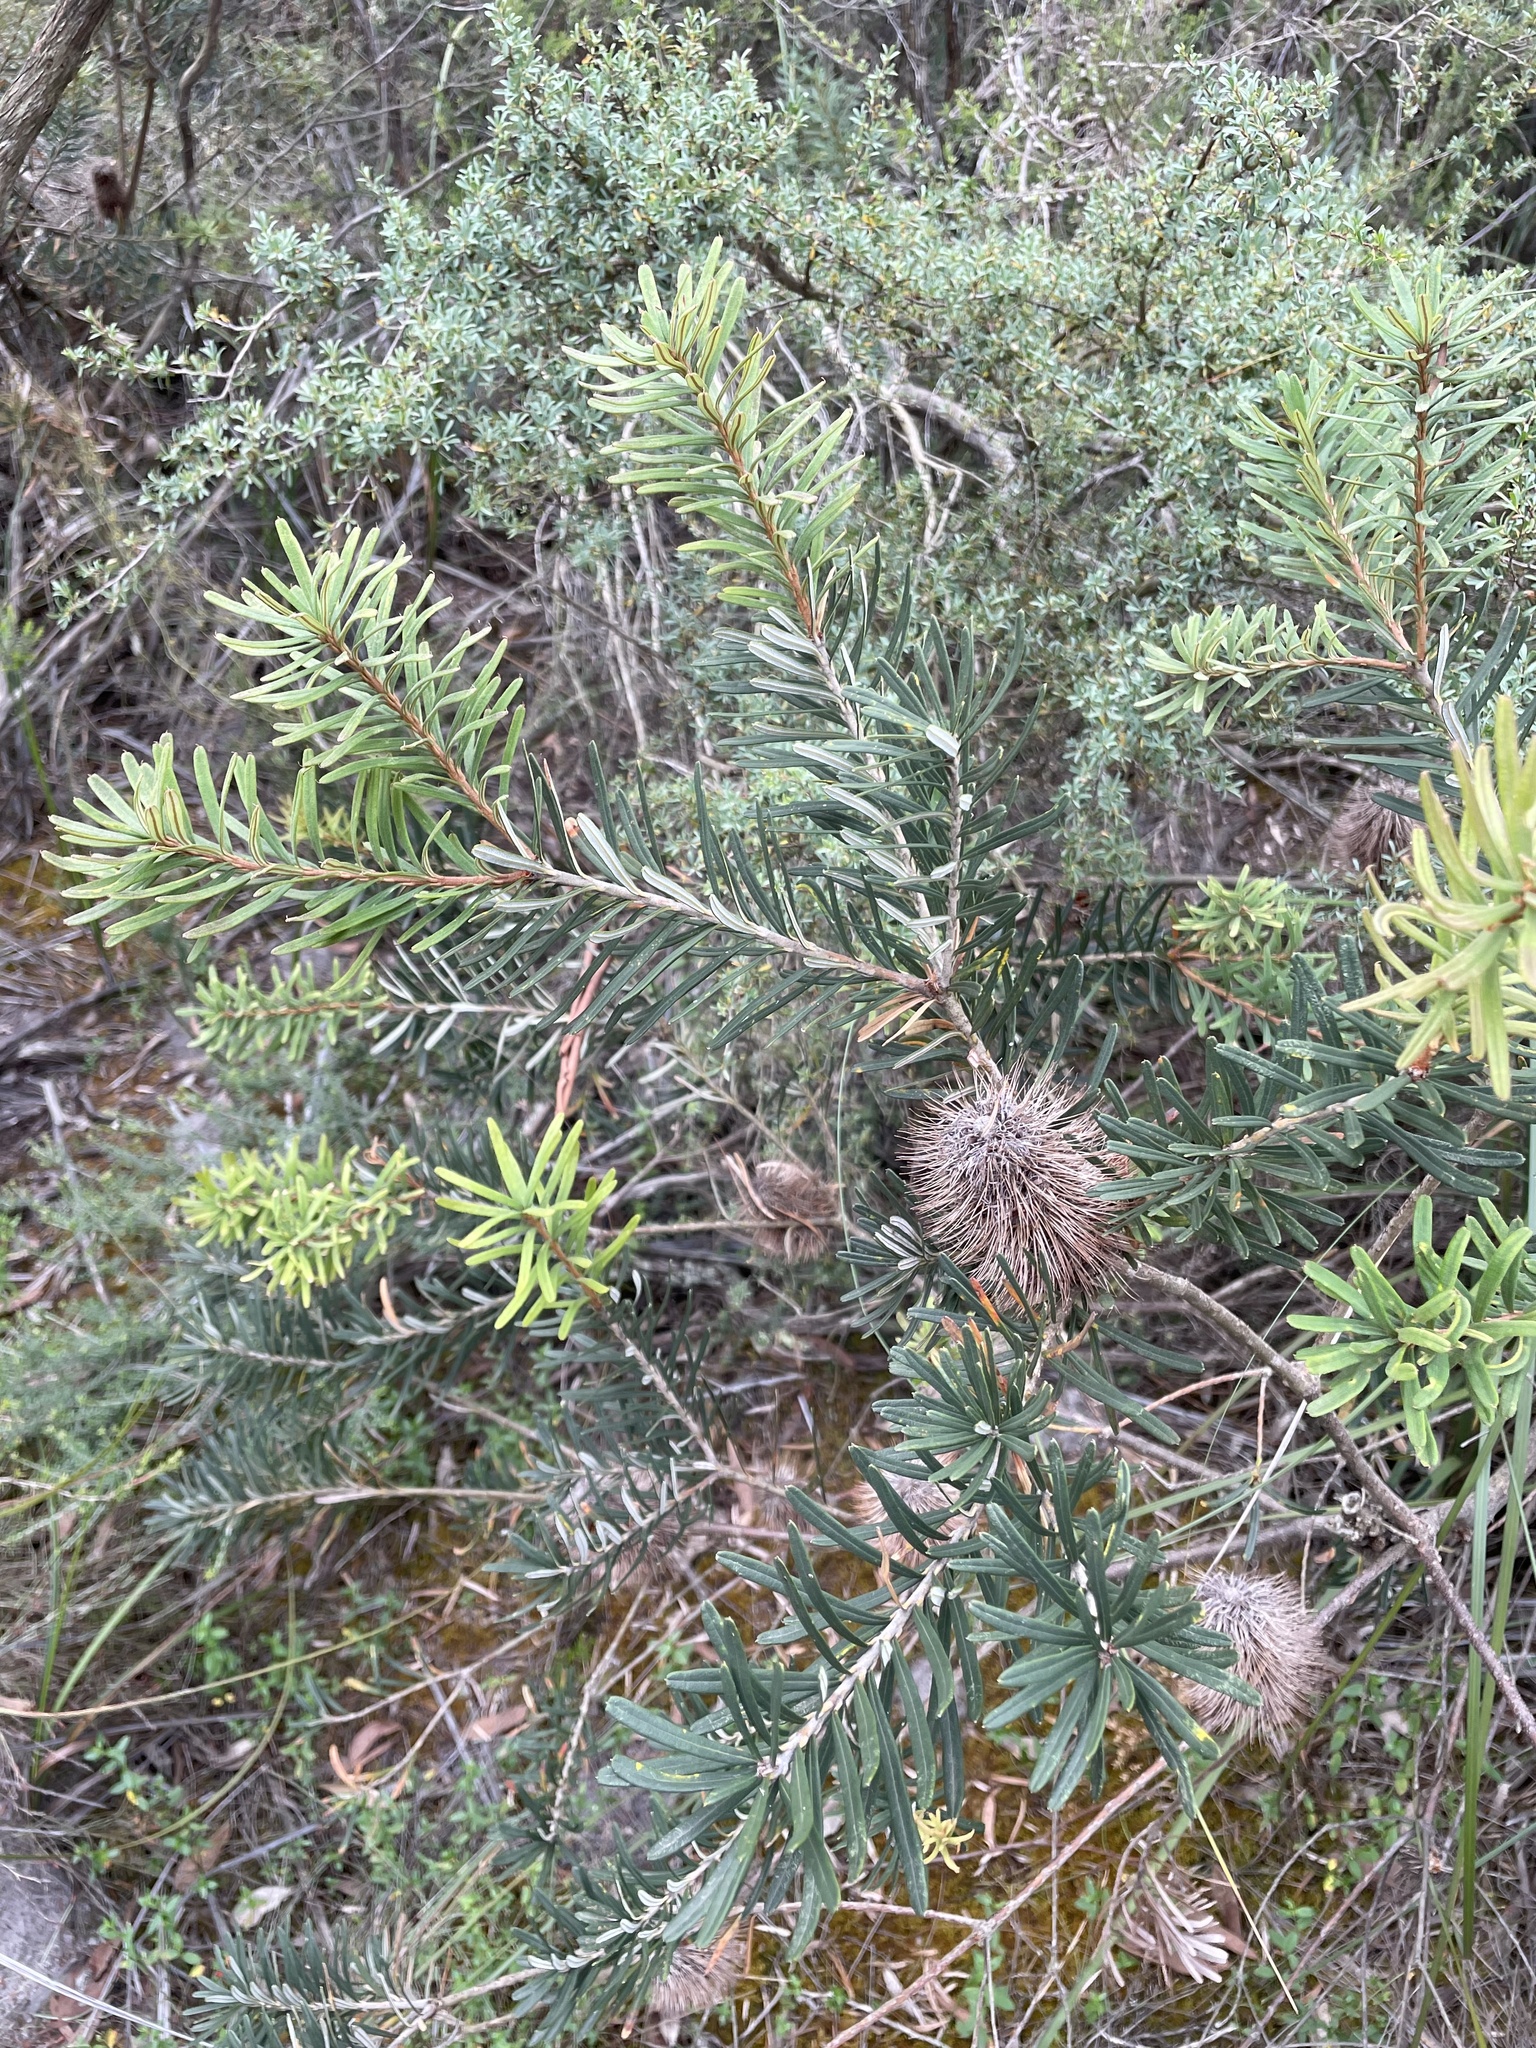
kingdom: Plantae
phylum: Tracheophyta
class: Magnoliopsida
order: Proteales
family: Proteaceae
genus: Banksia
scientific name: Banksia marginata
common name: Silver banksia
